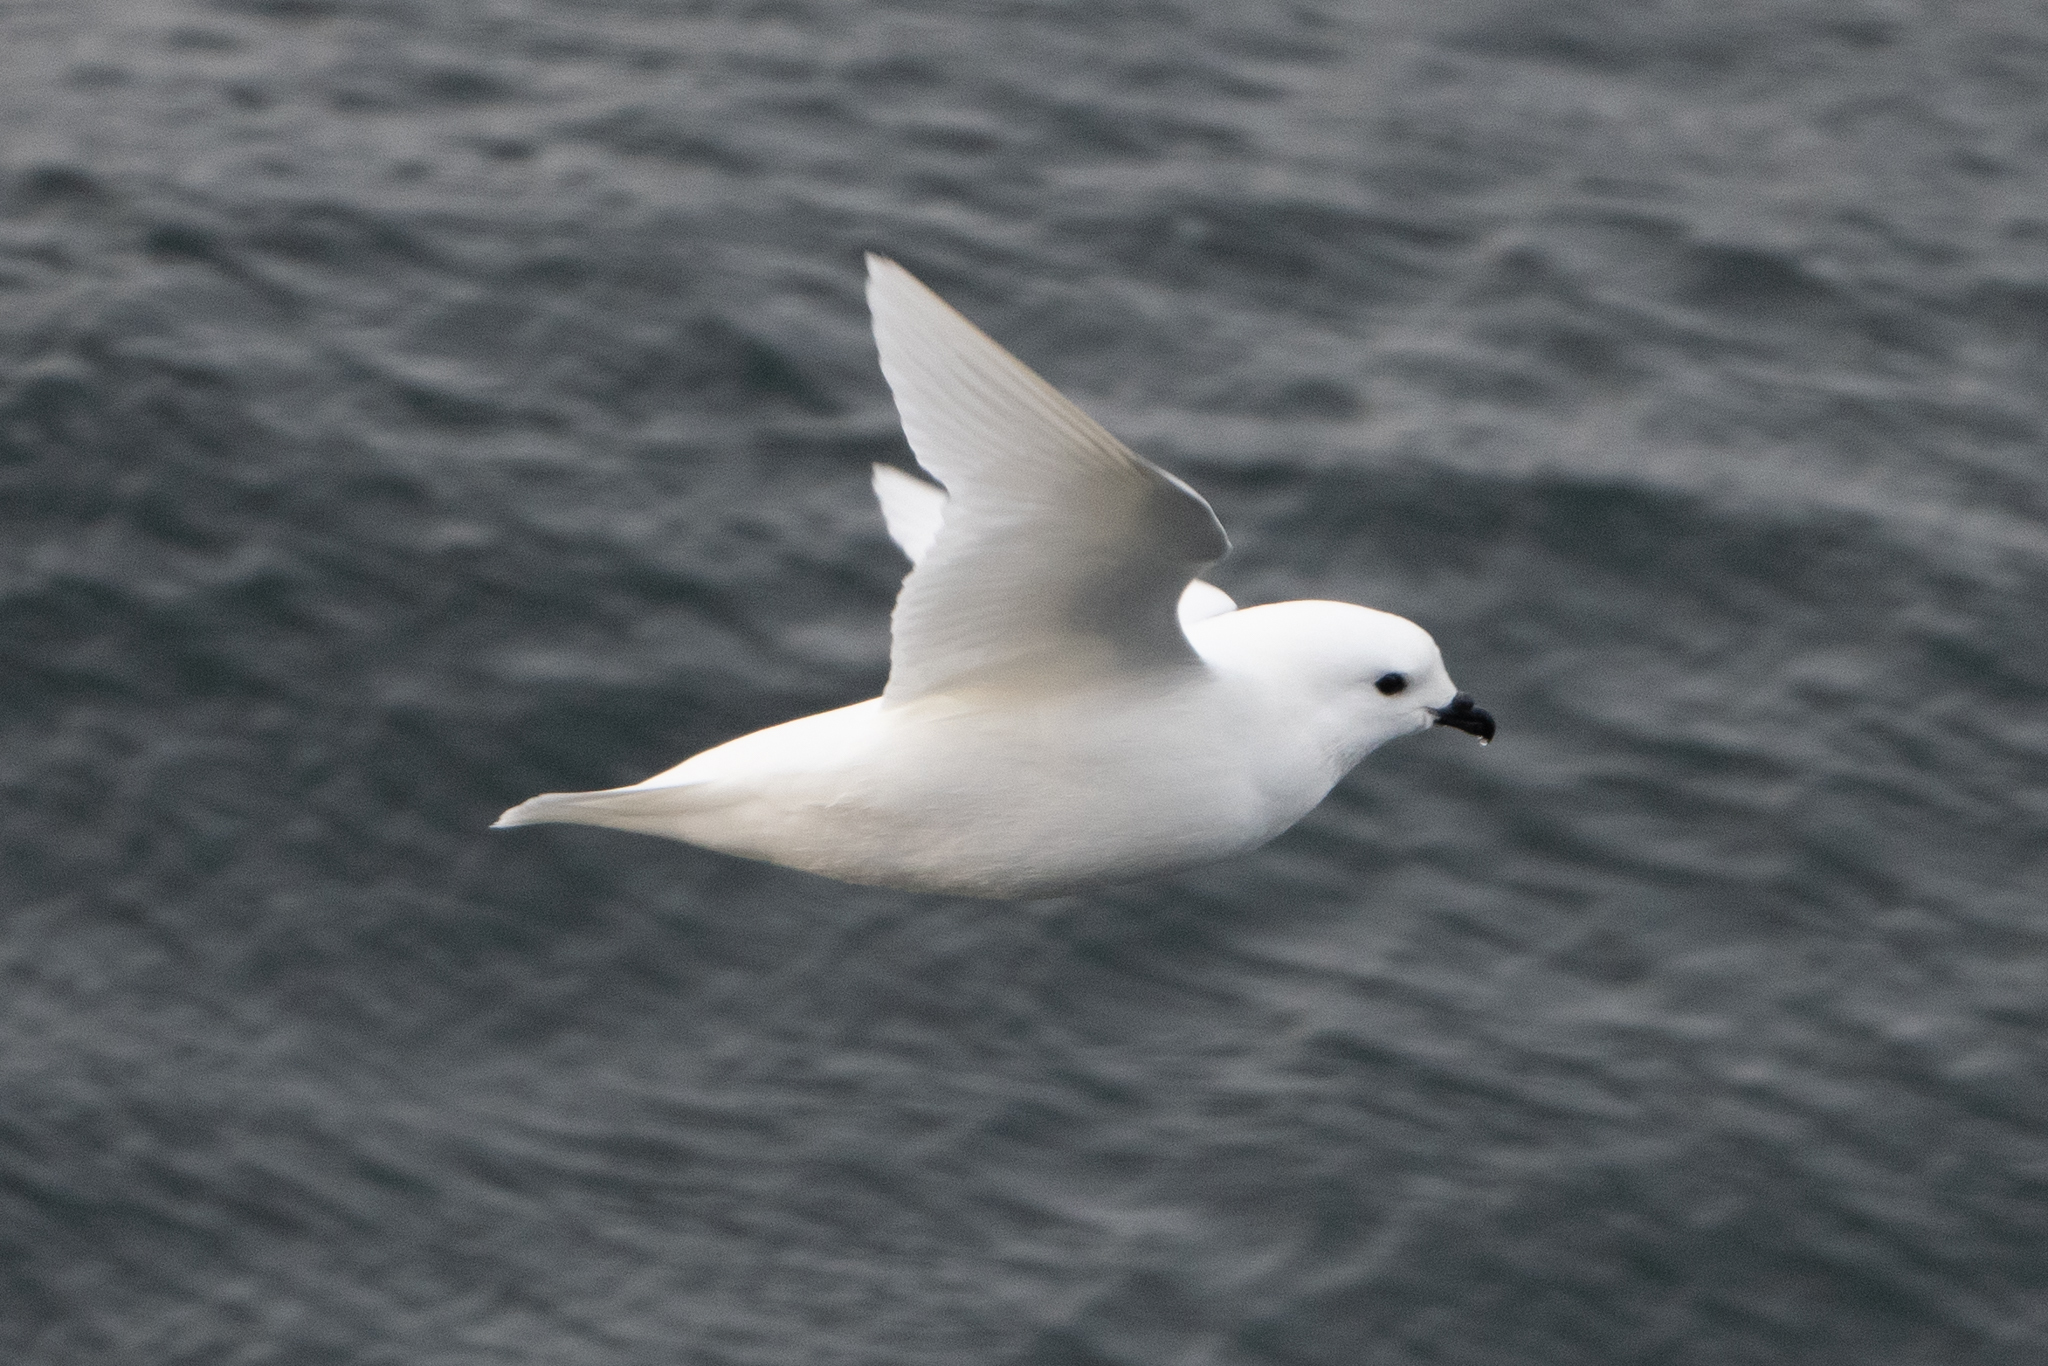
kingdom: Animalia
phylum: Chordata
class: Aves
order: Procellariiformes
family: Procellariidae
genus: Pagodroma
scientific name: Pagodroma nivea
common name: Snow petrel
